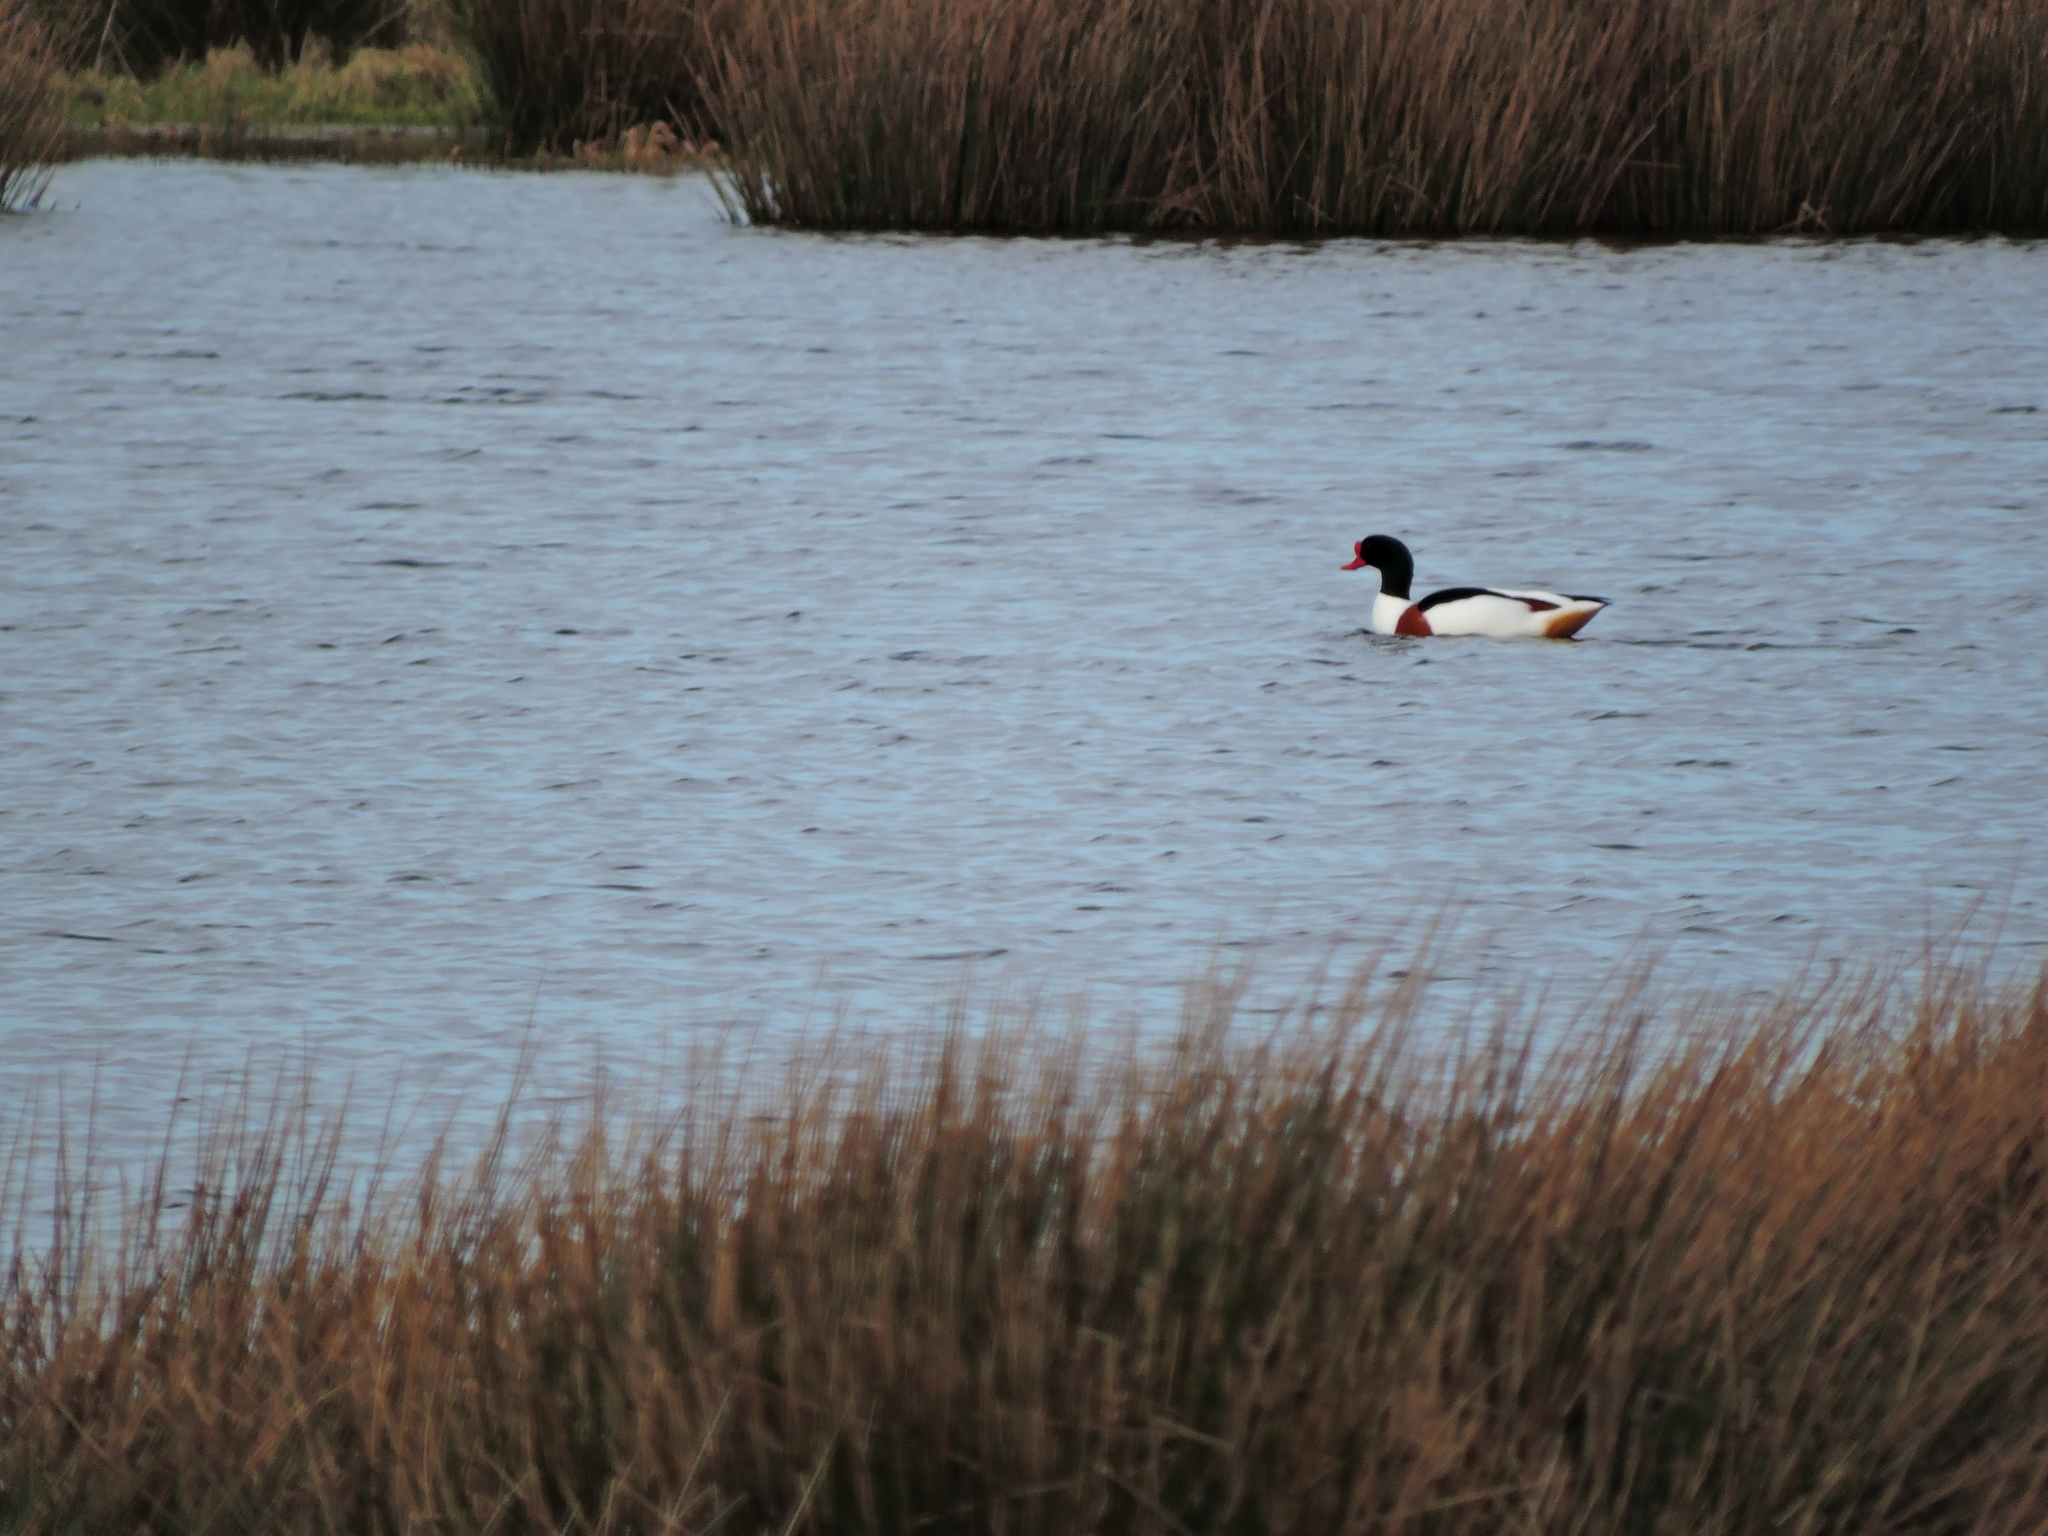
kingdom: Animalia
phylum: Chordata
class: Aves
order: Anseriformes
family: Anatidae
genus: Tadorna
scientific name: Tadorna tadorna
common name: Common shelduck
